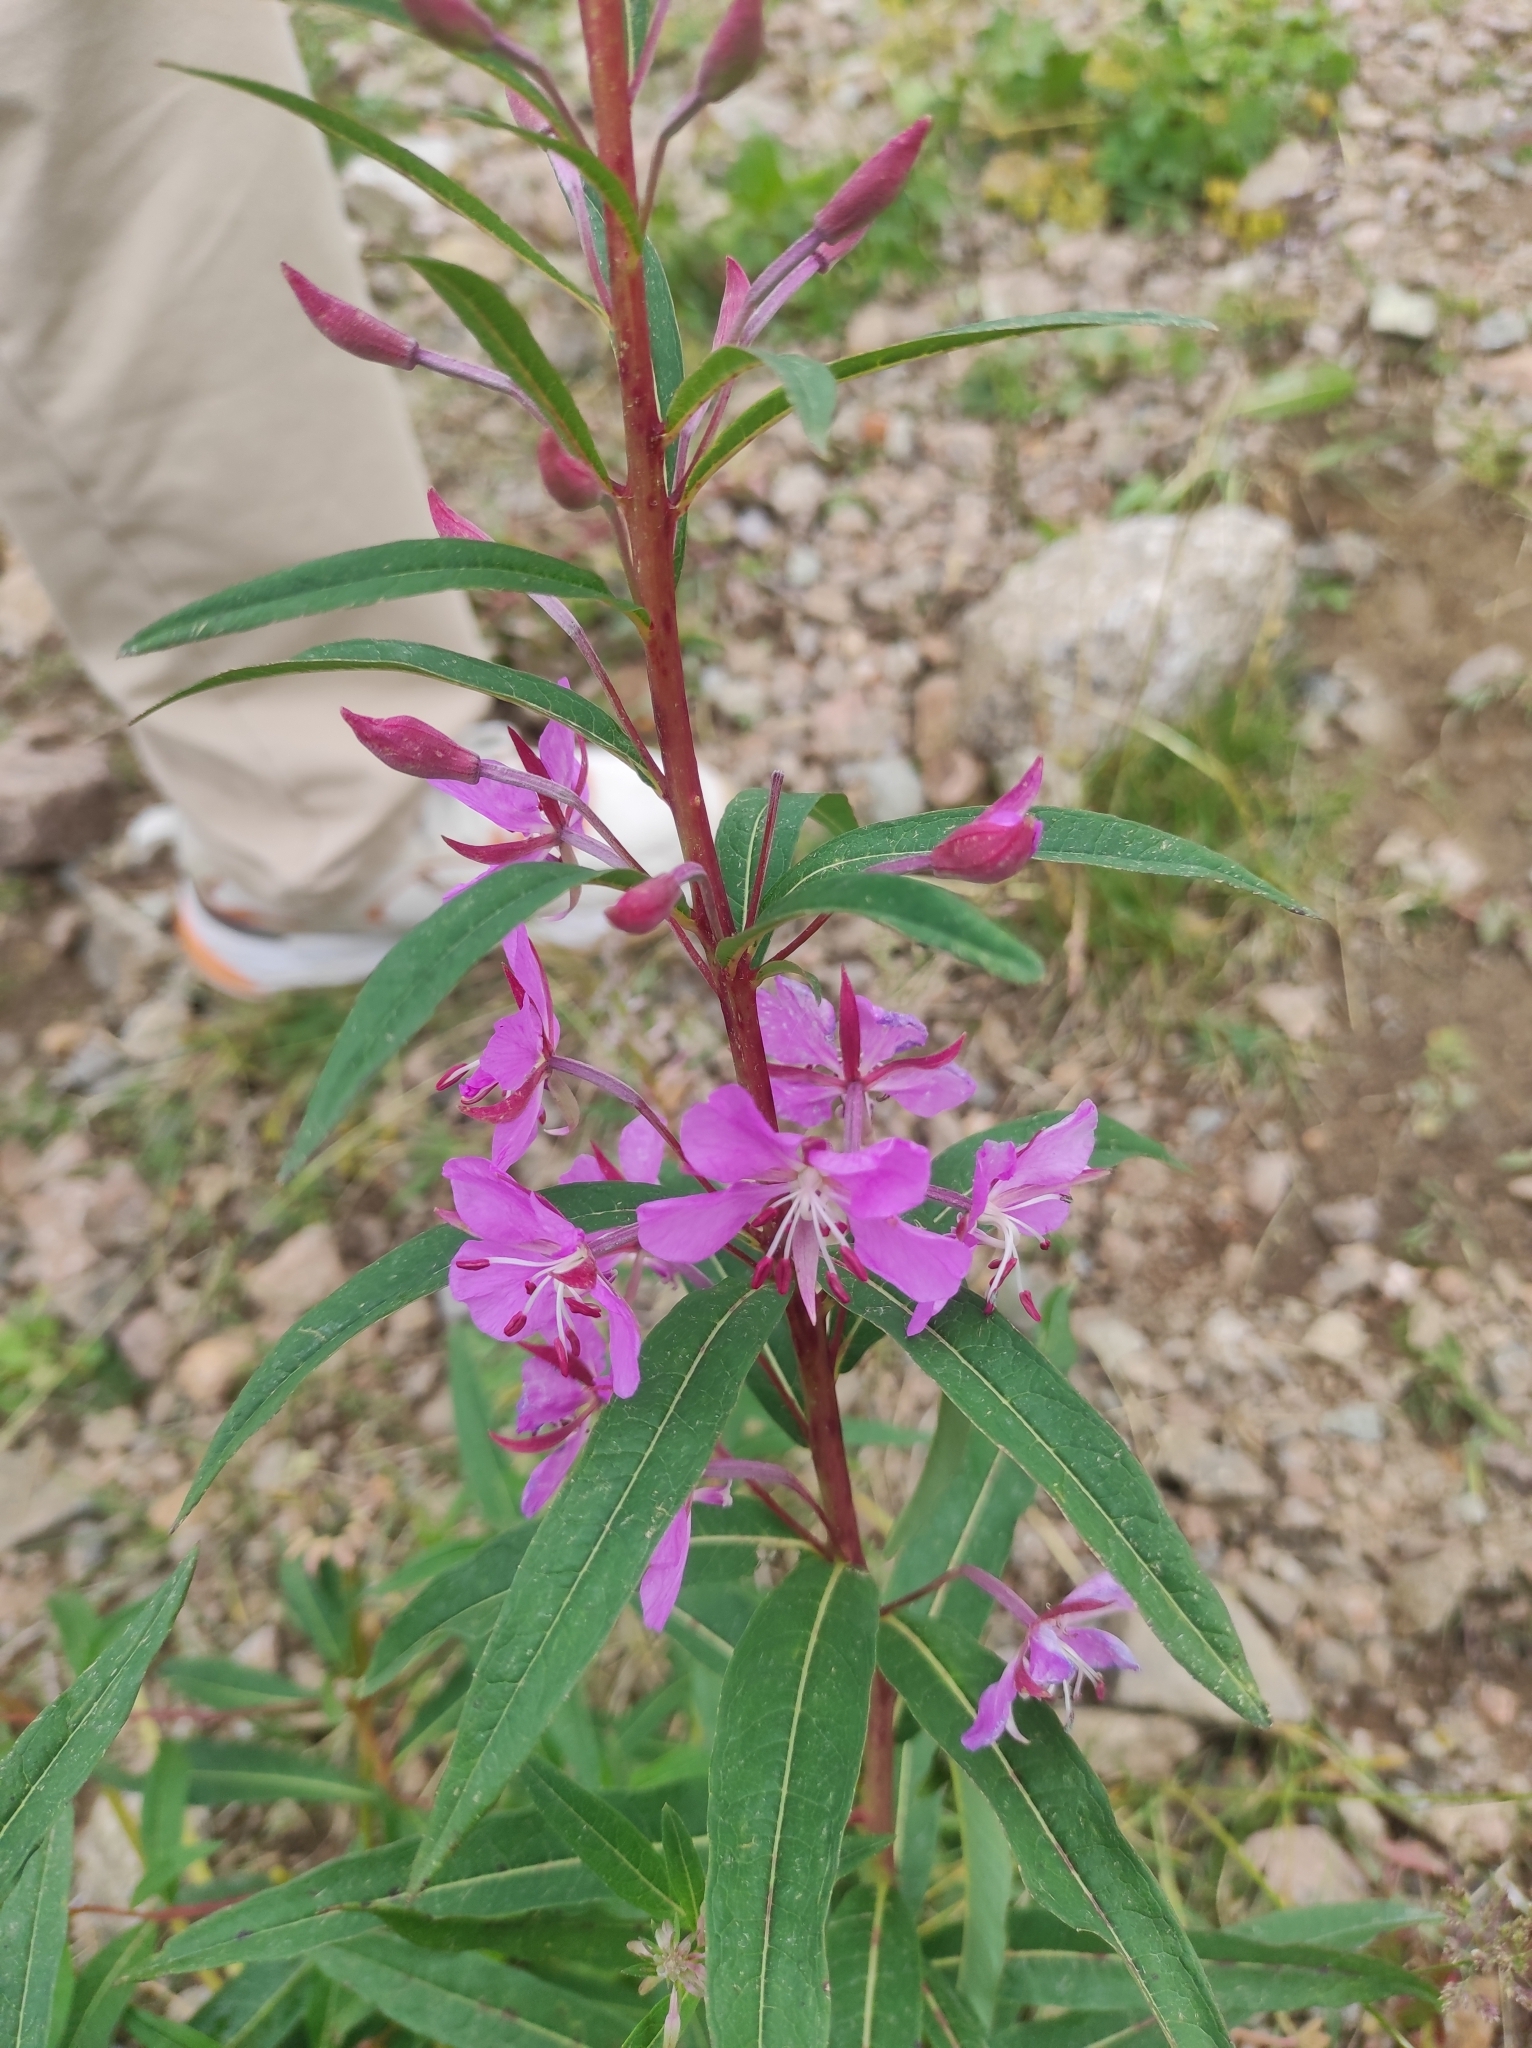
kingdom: Plantae
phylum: Tracheophyta
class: Magnoliopsida
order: Myrtales
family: Onagraceae
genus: Chamaenerion
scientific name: Chamaenerion angustifolium
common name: Fireweed
